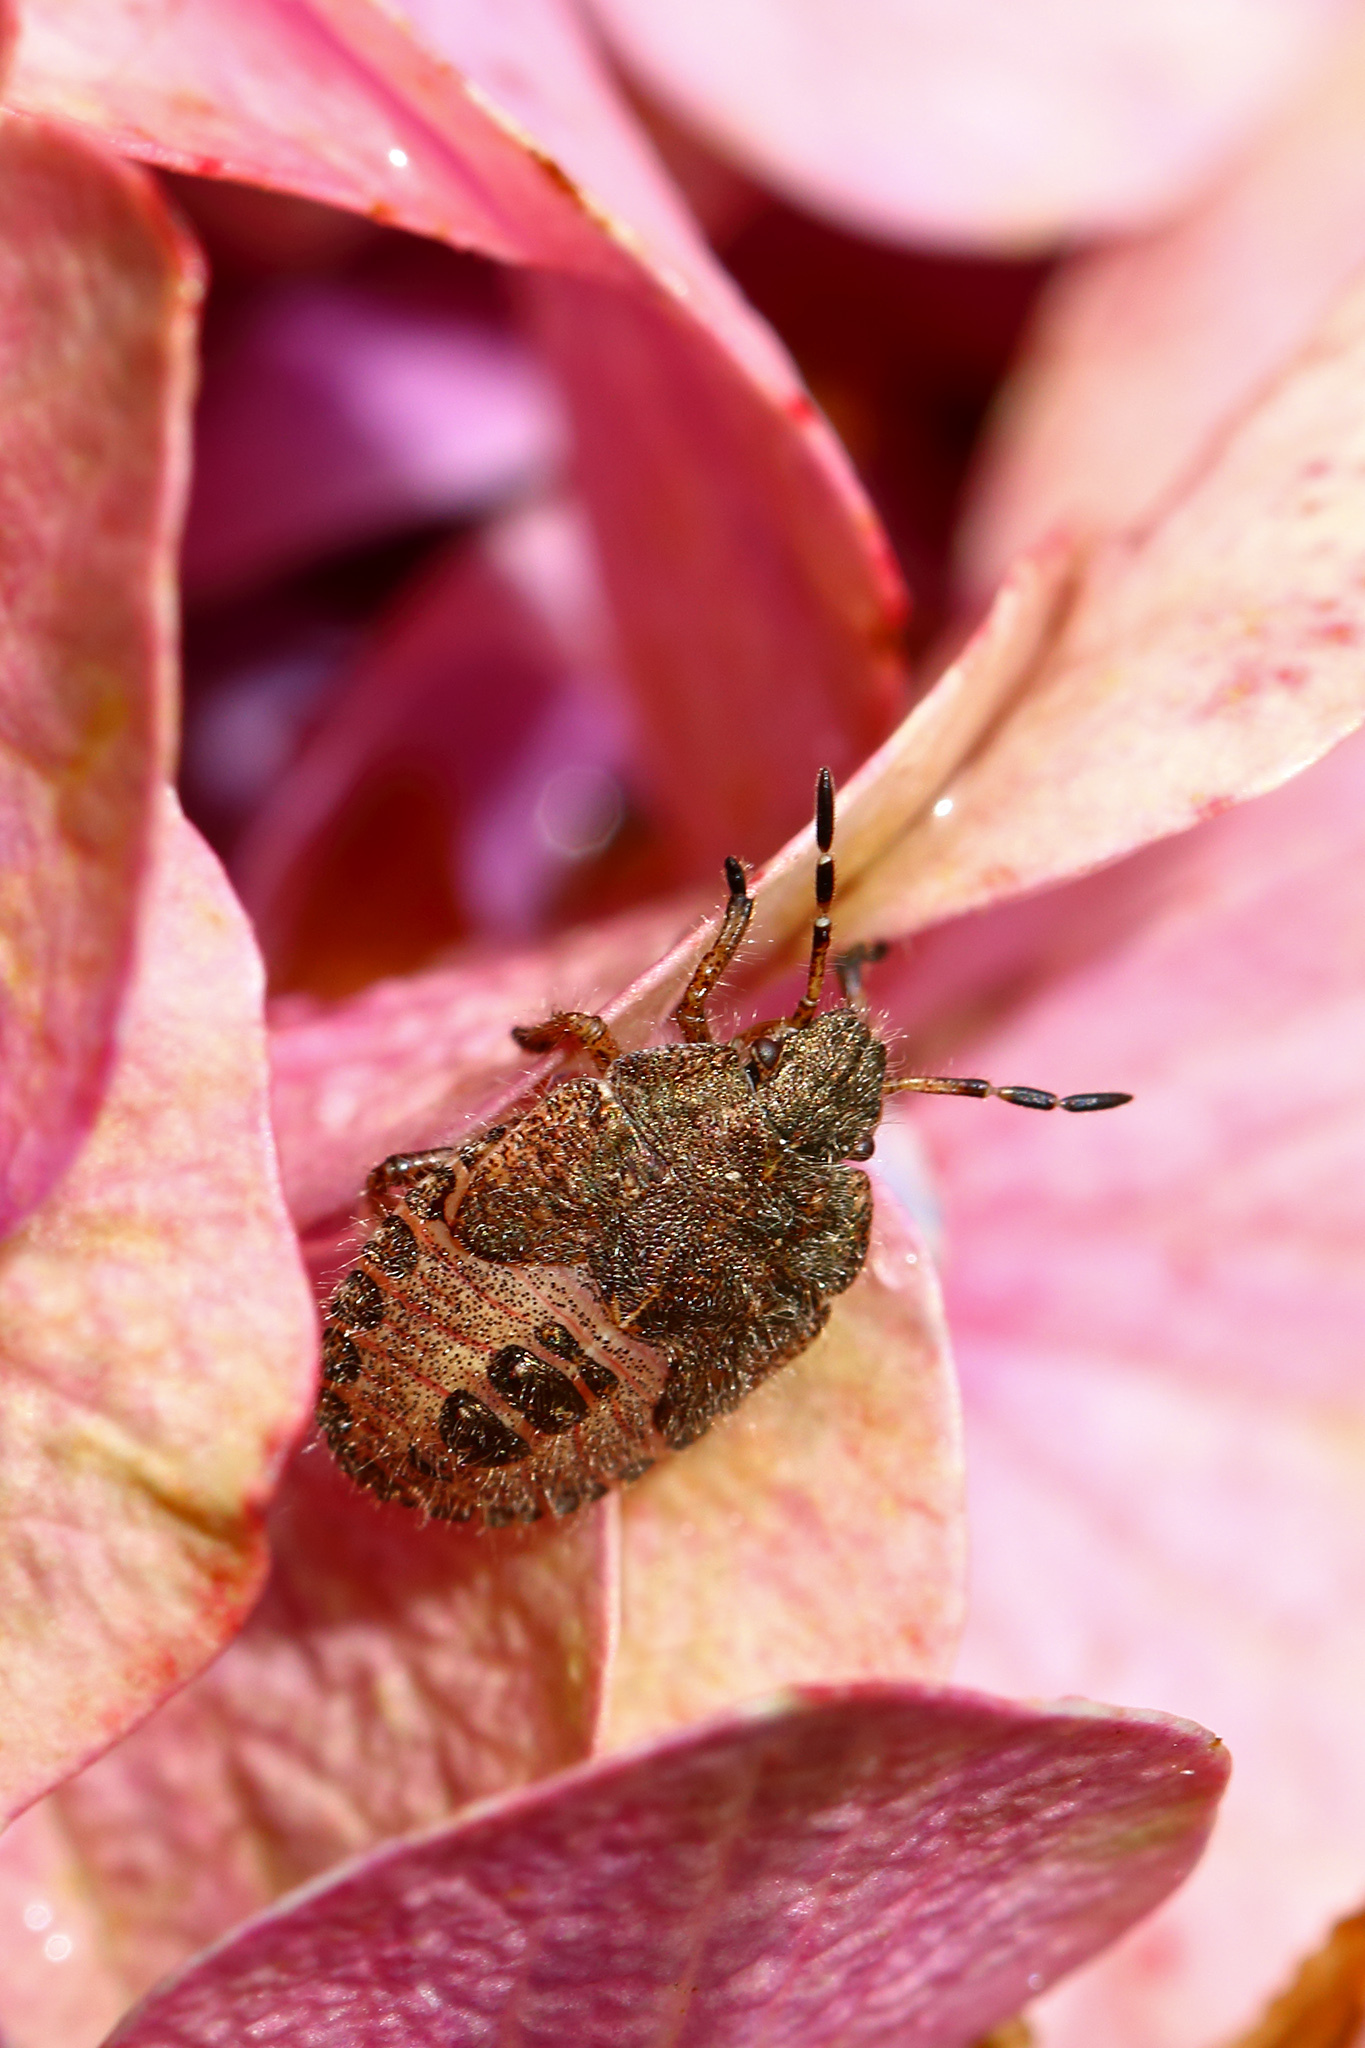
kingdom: Animalia
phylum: Arthropoda
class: Insecta
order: Hemiptera
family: Pentatomidae
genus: Dolycoris
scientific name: Dolycoris baccarum
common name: Sloe bug
